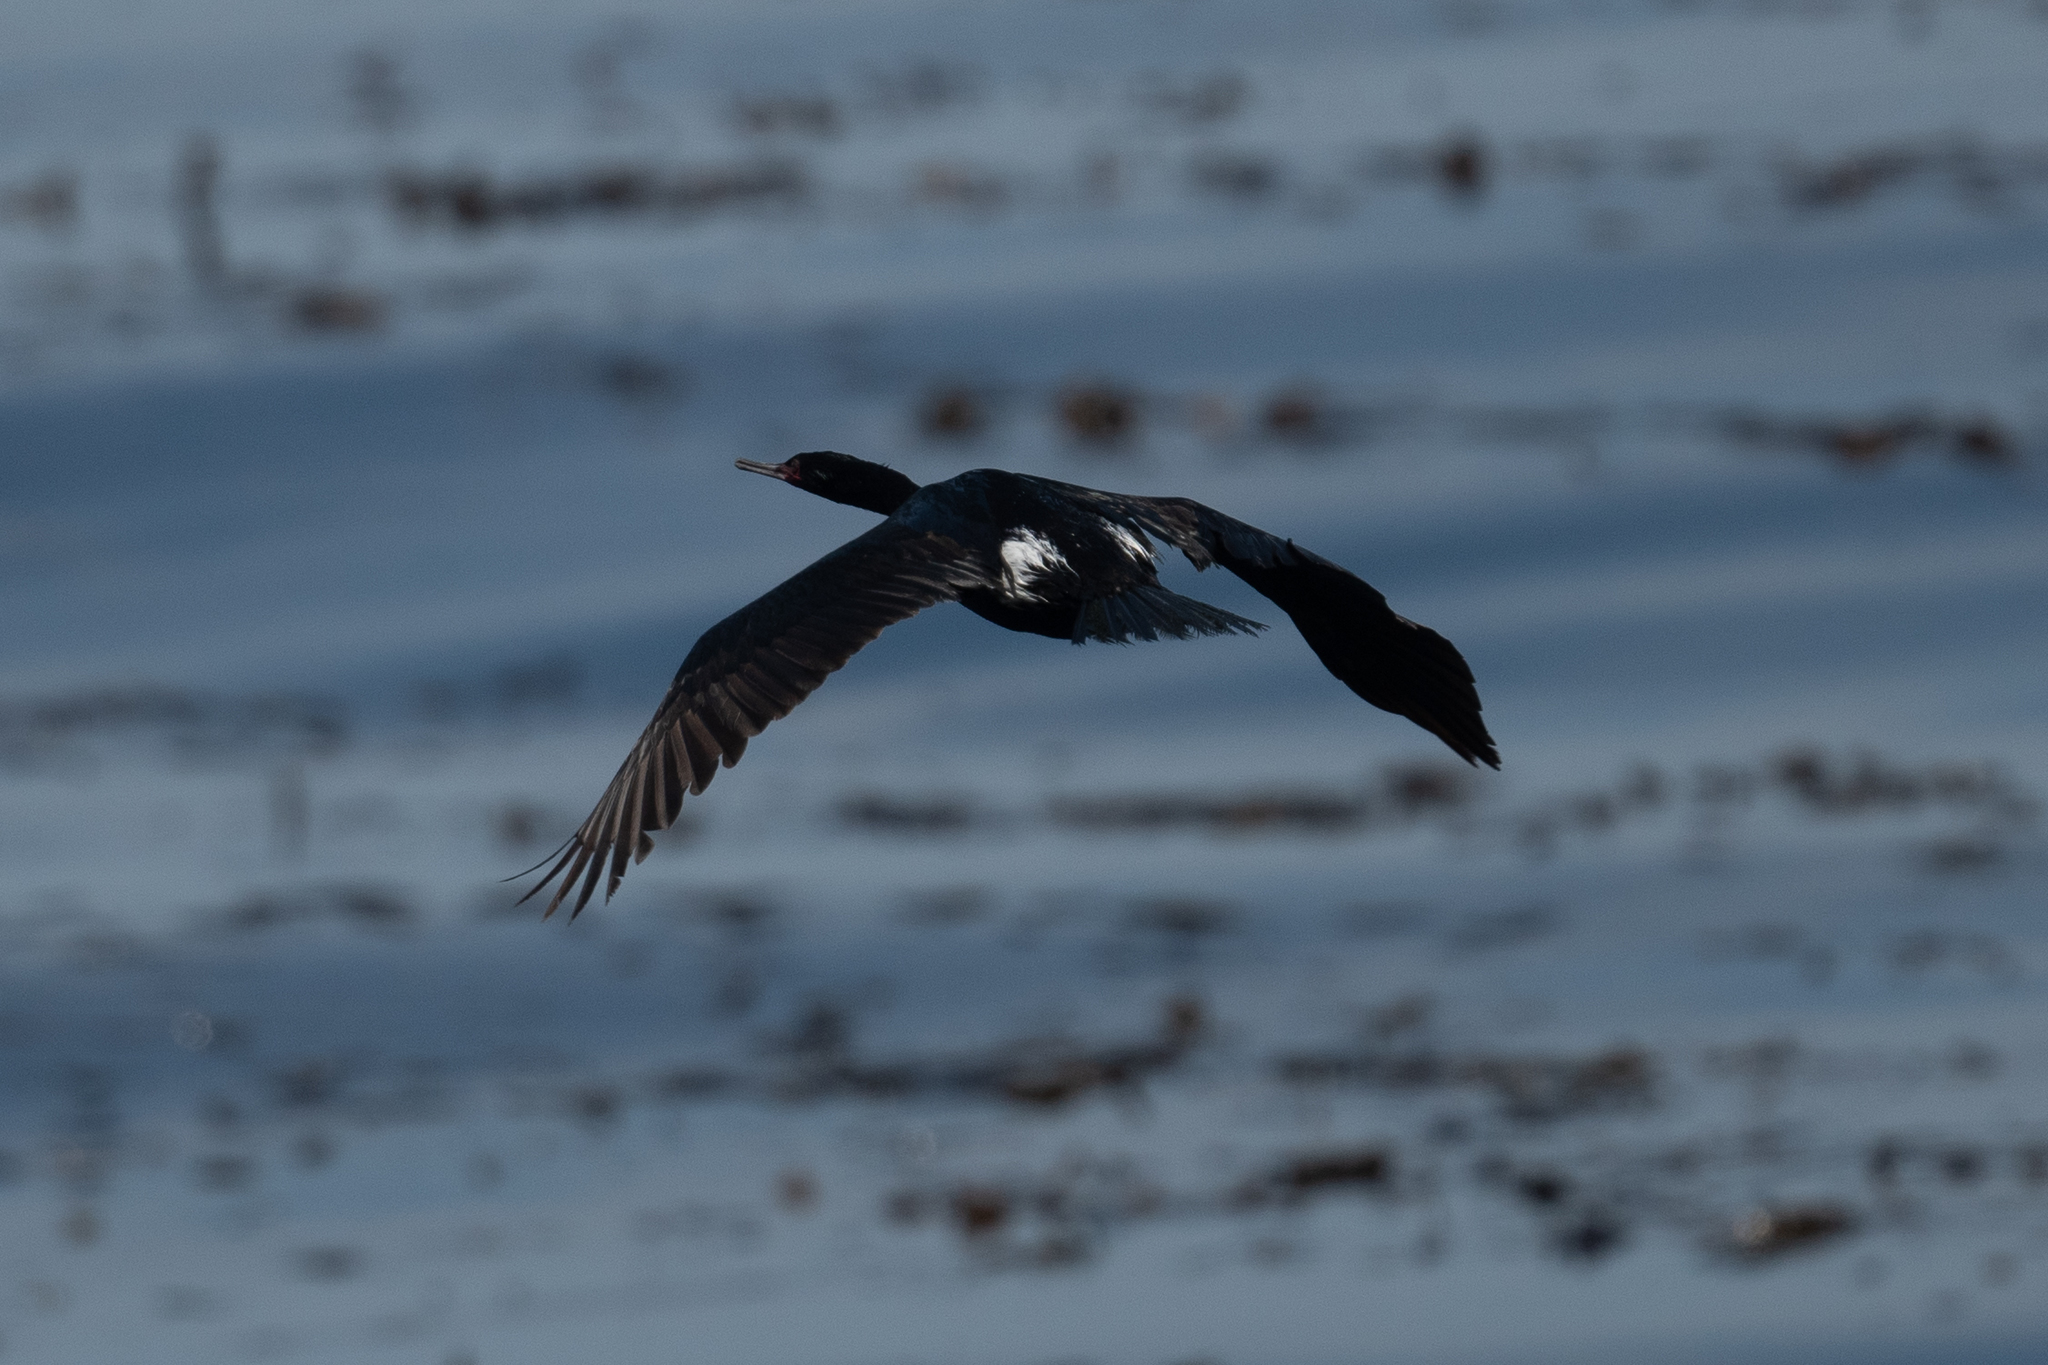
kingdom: Animalia
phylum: Chordata
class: Aves
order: Suliformes
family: Phalacrocoracidae
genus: Phalacrocorax
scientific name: Phalacrocorax pelagicus
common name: Pelagic cormorant
